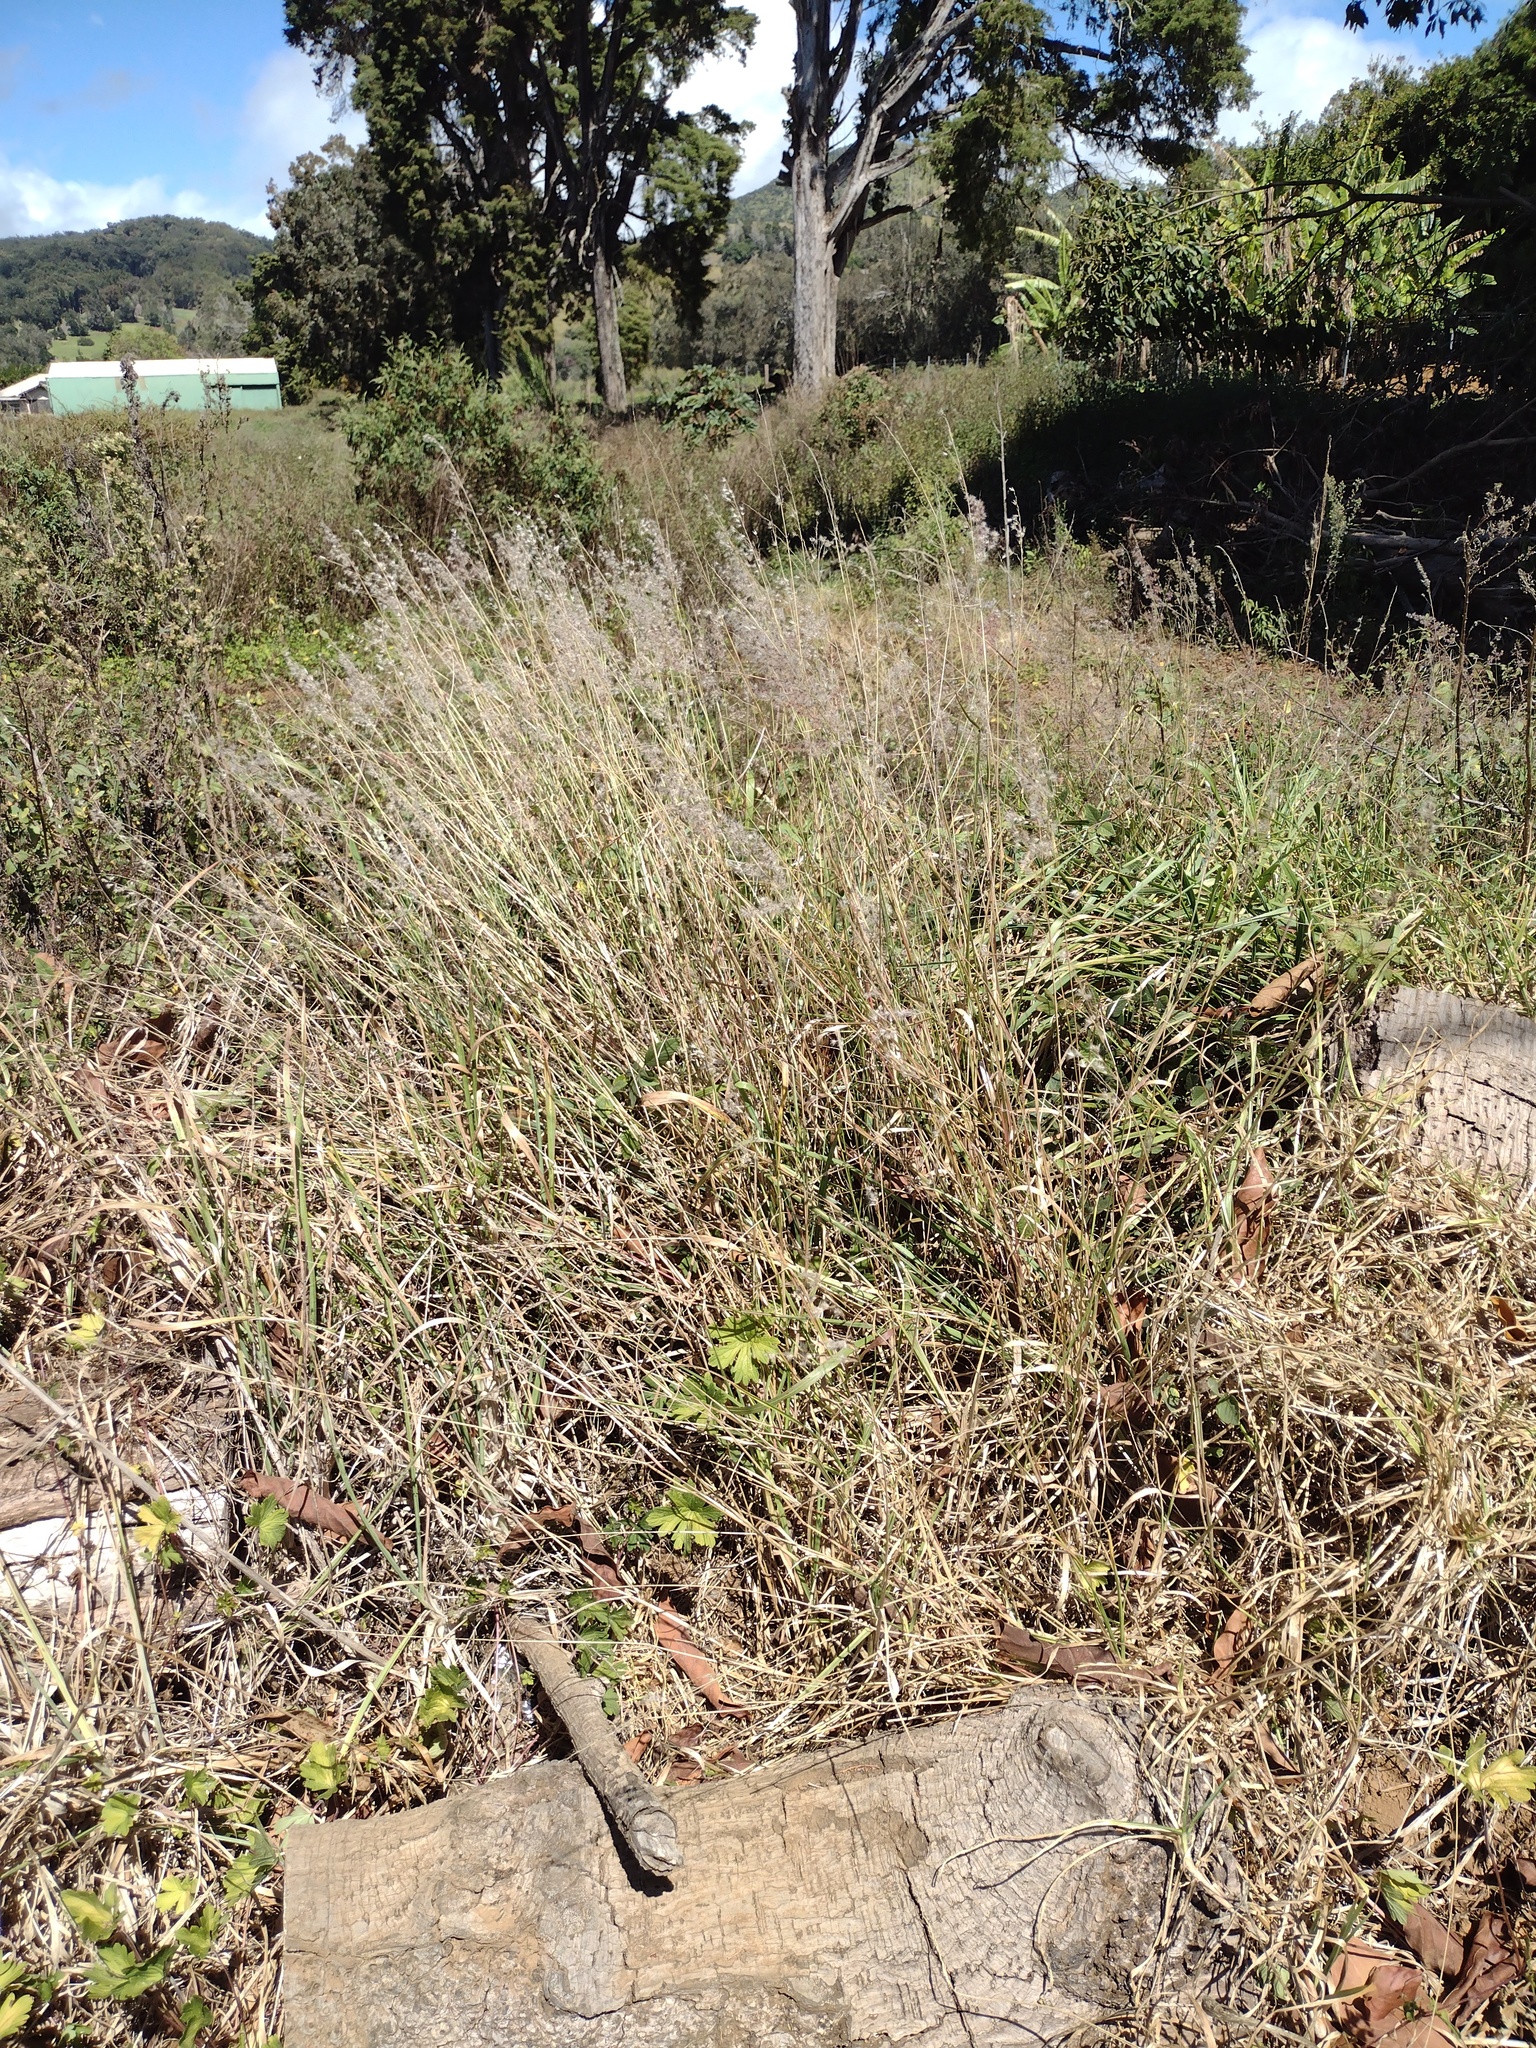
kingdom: Plantae
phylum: Tracheophyta
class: Liliopsida
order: Poales
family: Poaceae
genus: Melinis
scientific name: Melinis repens
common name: Rose natal grass
